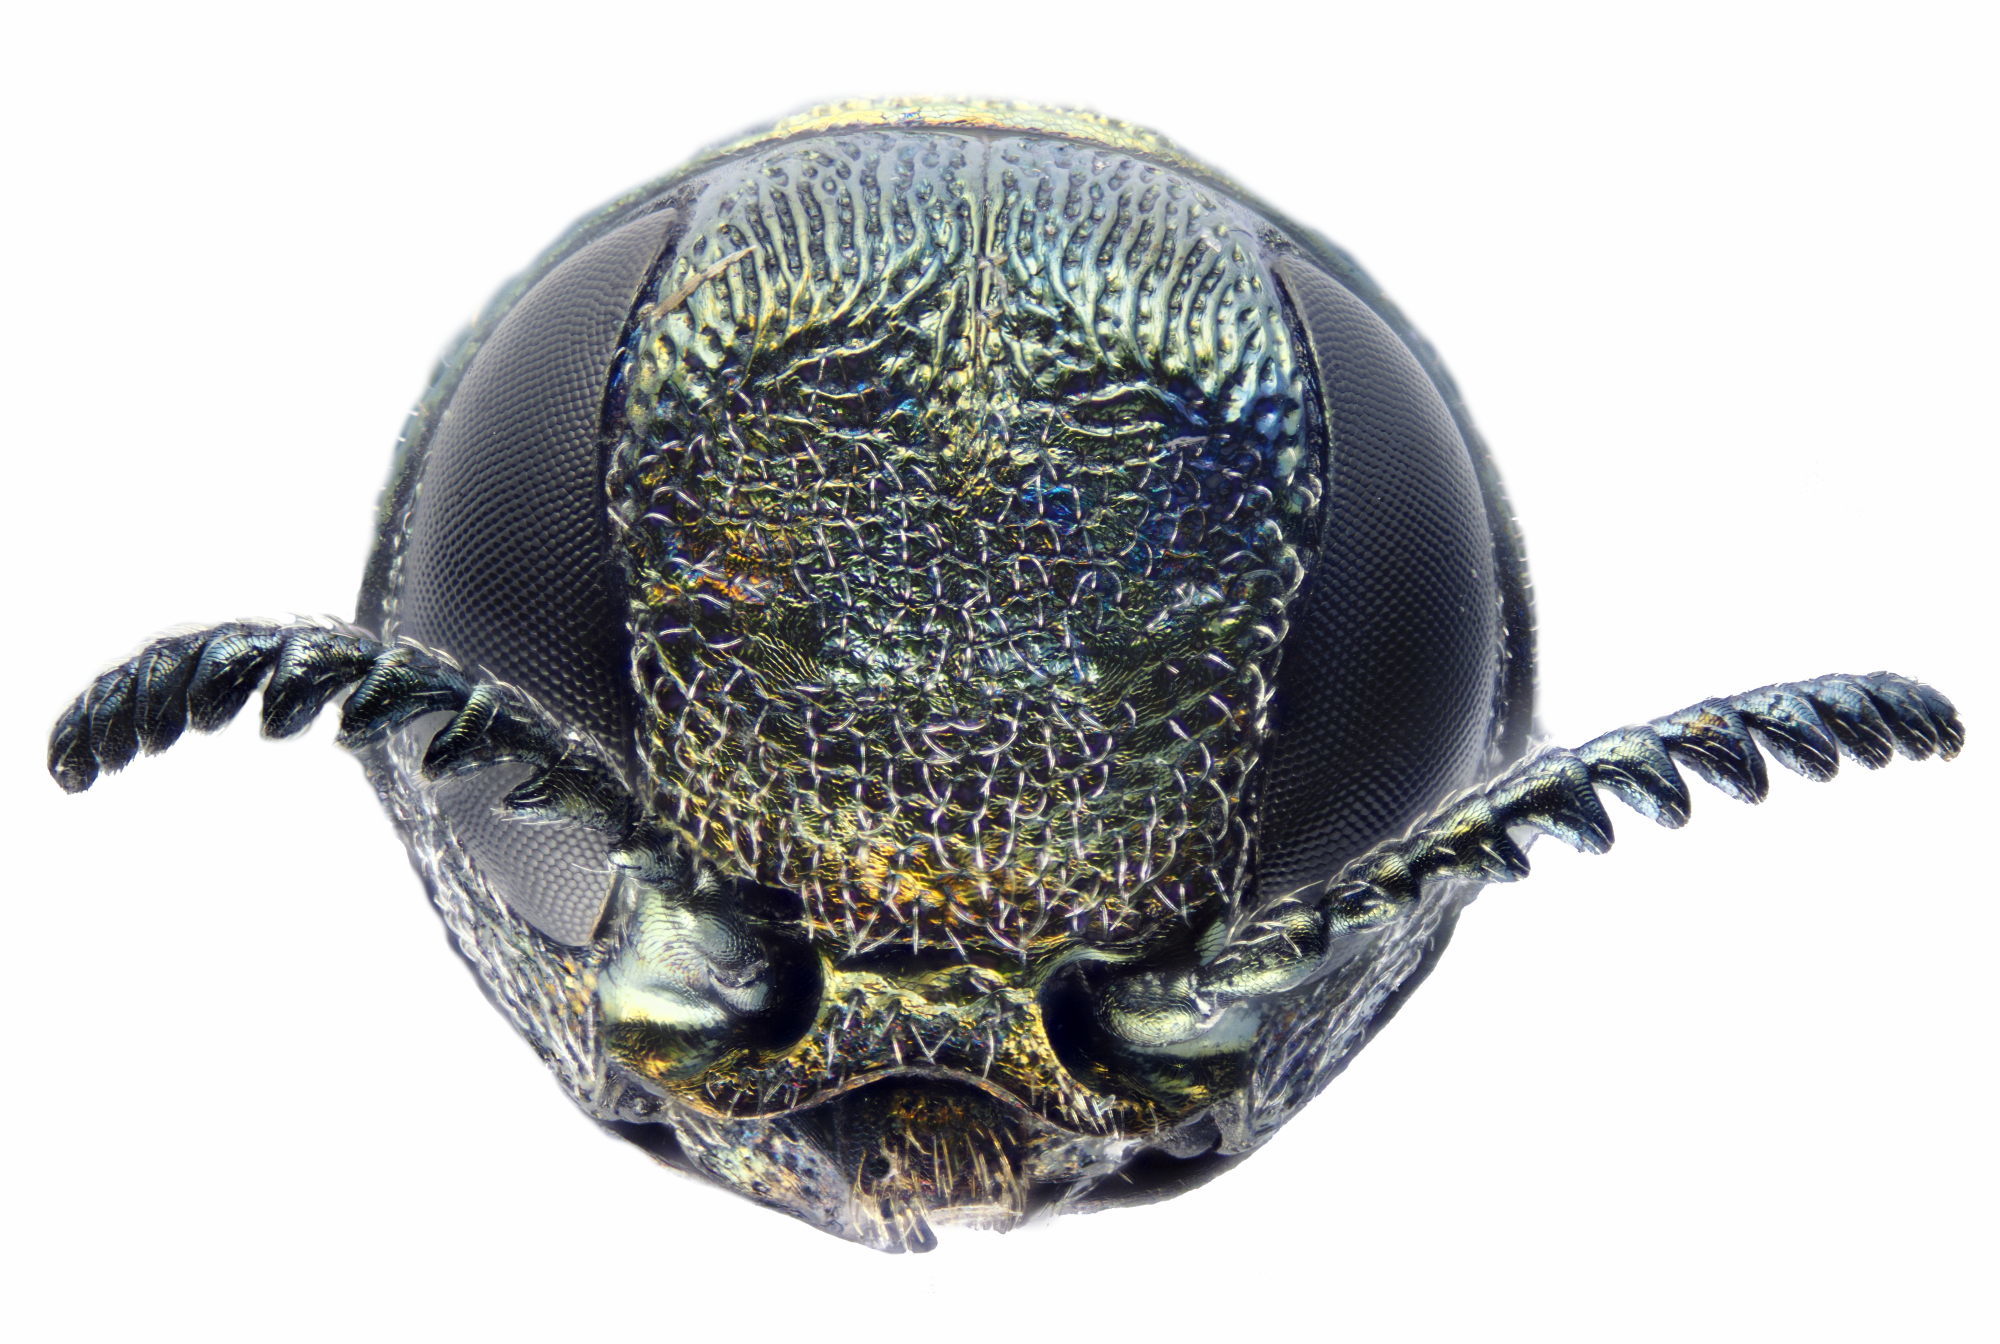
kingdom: Animalia
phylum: Arthropoda
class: Insecta
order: Coleoptera
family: Buprestidae
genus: Agrilus
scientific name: Agrilus suvorovi
